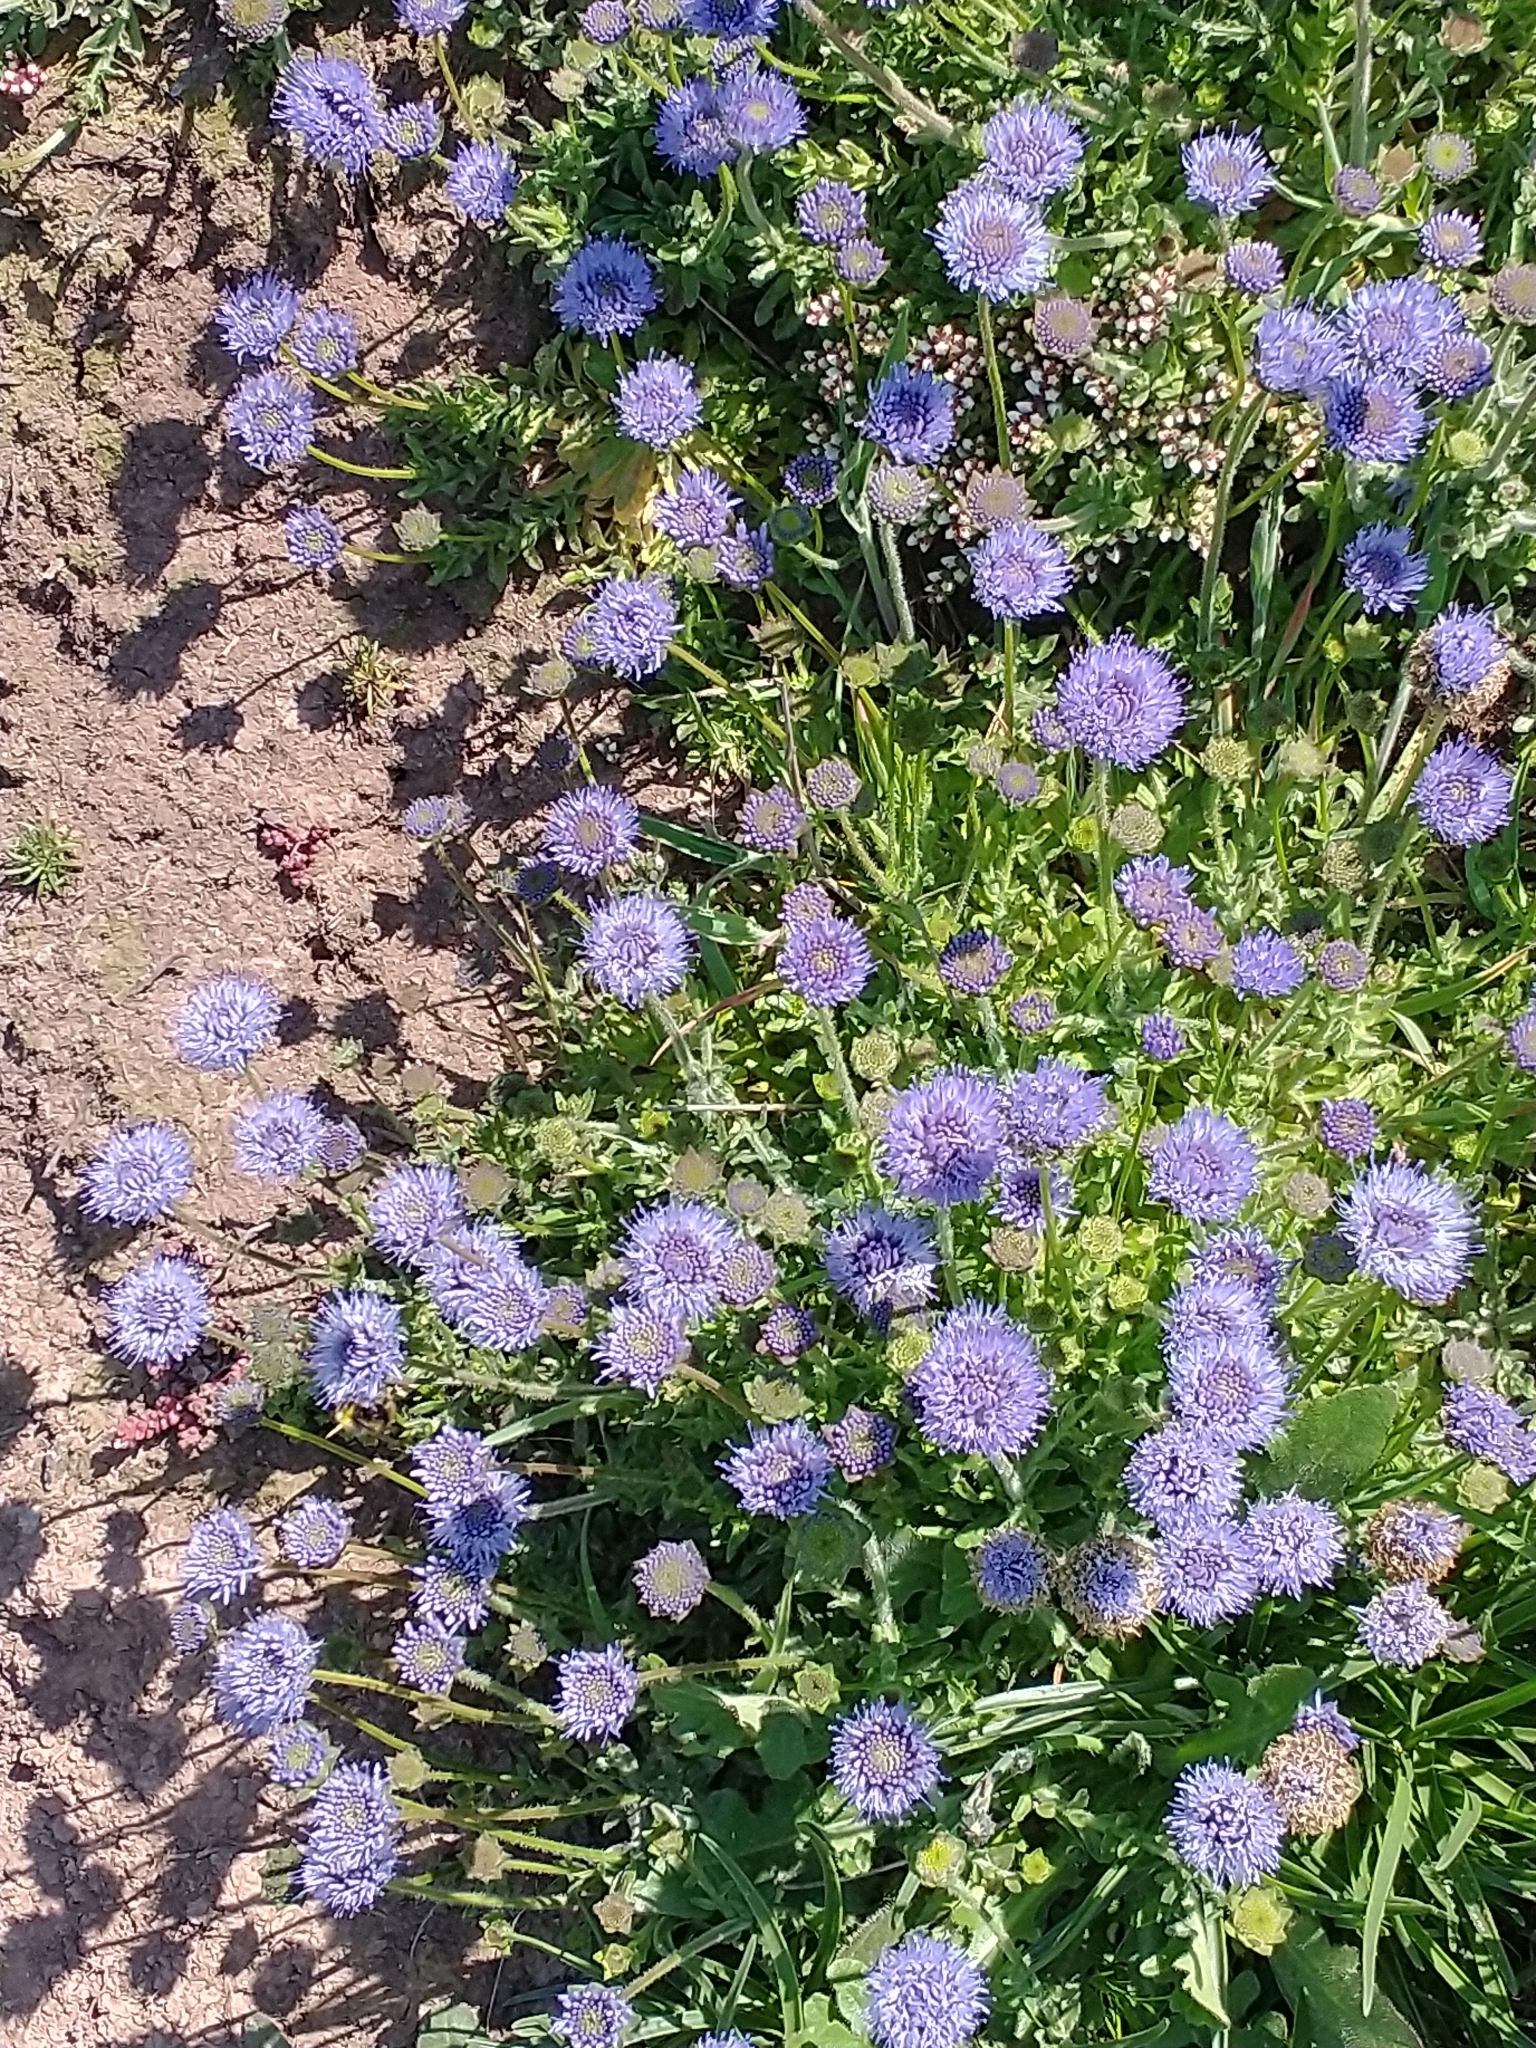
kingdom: Plantae
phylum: Tracheophyta
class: Magnoliopsida
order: Asterales
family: Campanulaceae
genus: Jasione
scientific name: Jasione montana
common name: Sheep's-bit
